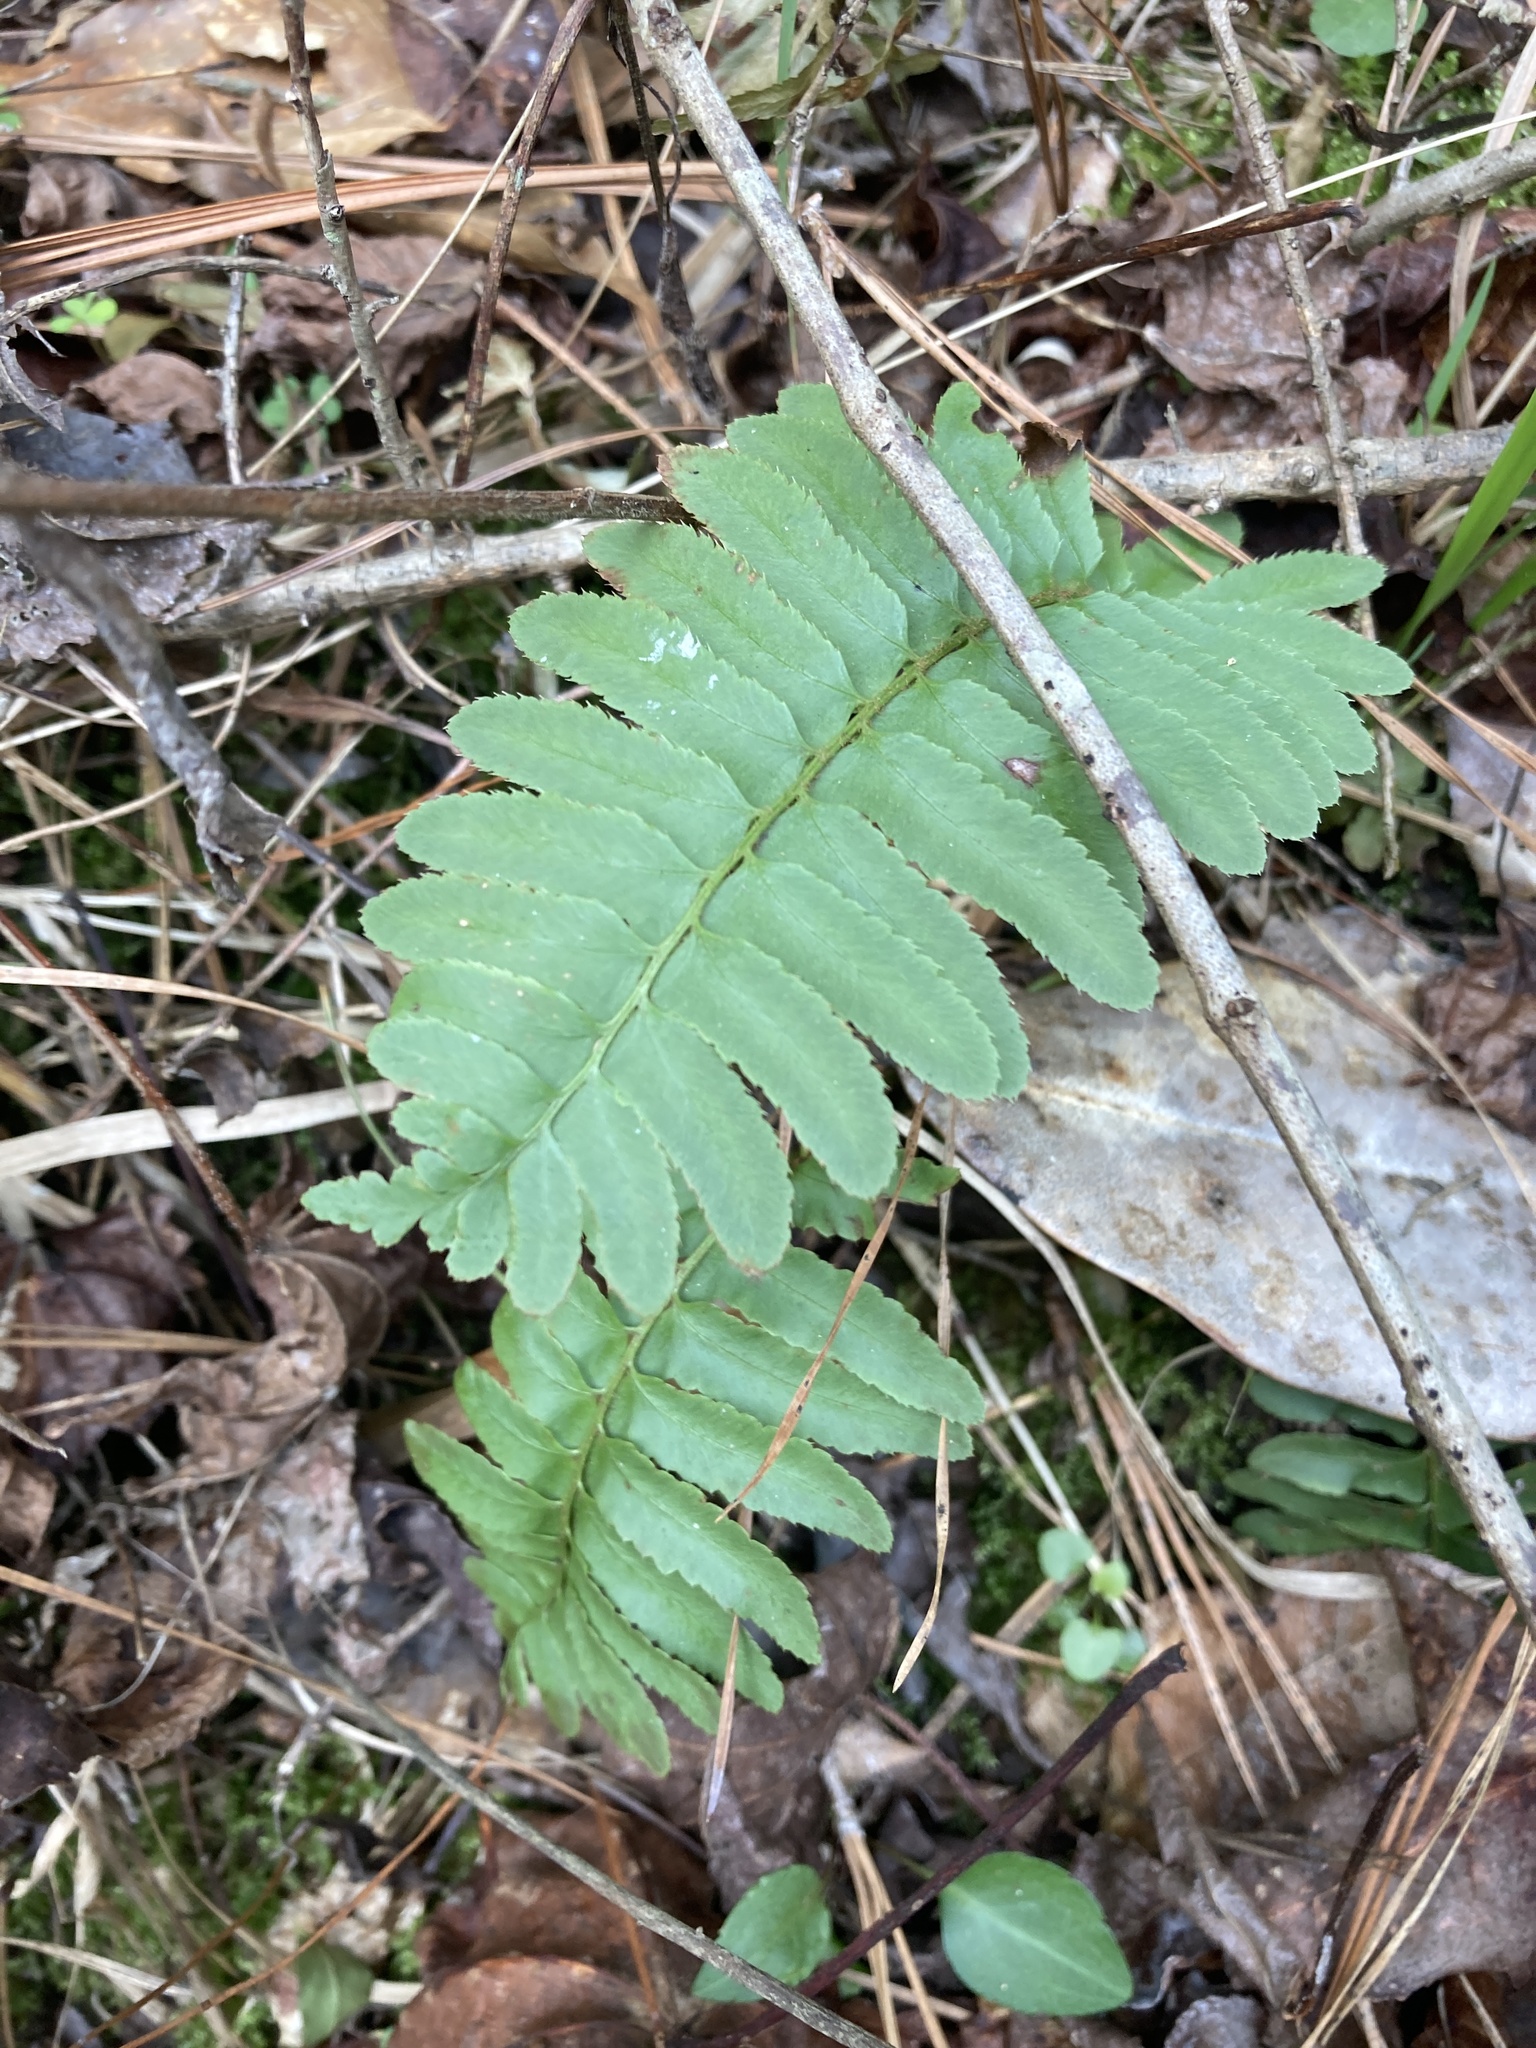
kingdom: Plantae
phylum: Tracheophyta
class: Polypodiopsida
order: Polypodiales
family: Dryopteridaceae
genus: Polystichum
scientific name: Polystichum acrostichoides
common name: Christmas fern
